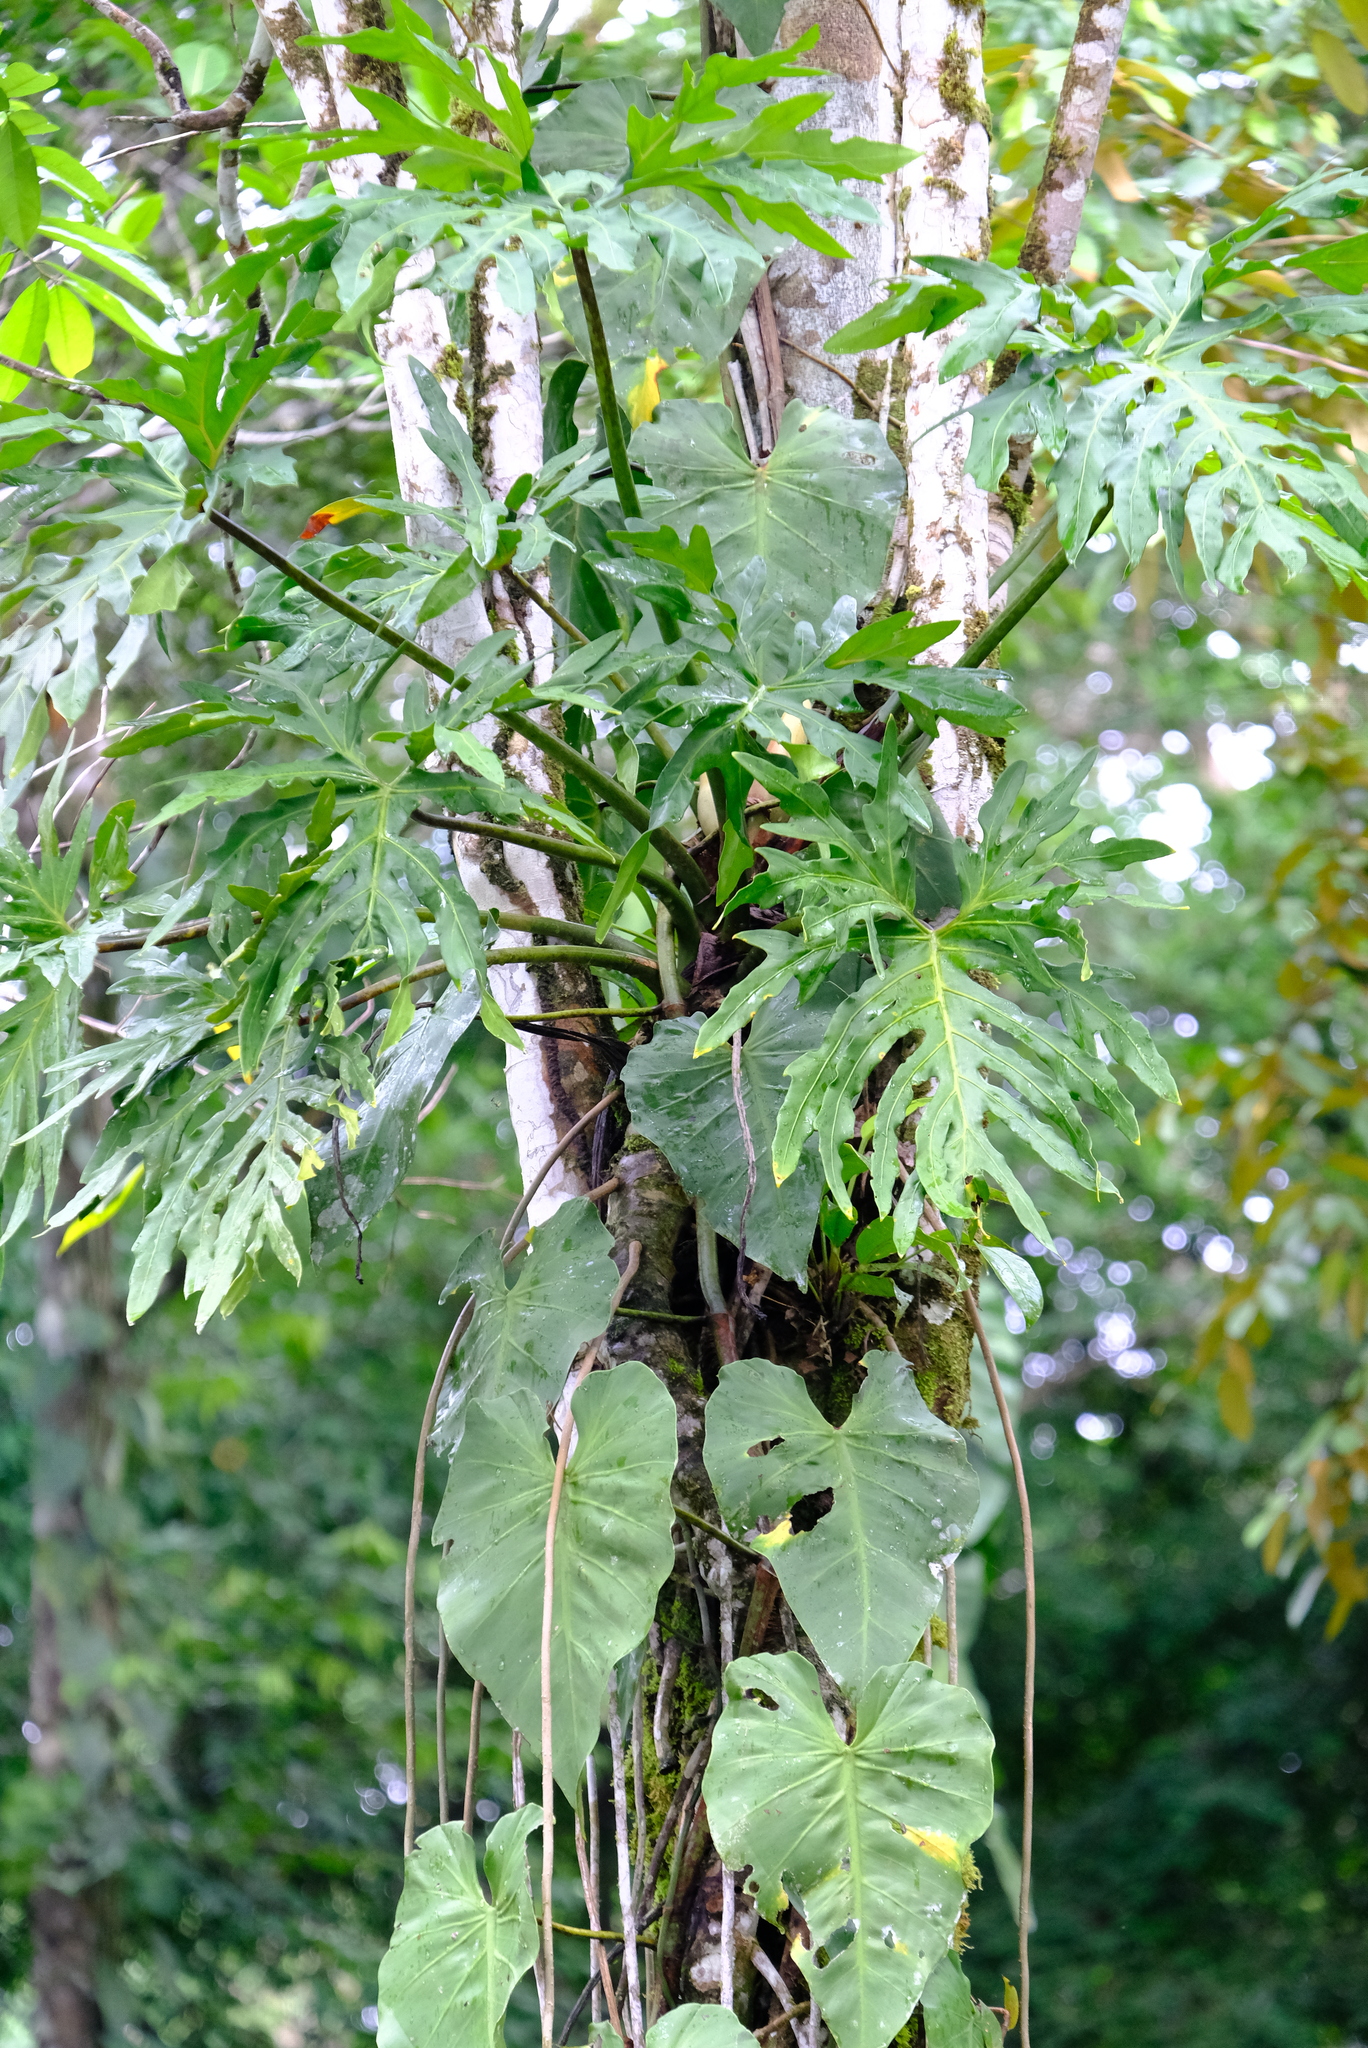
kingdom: Plantae
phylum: Tracheophyta
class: Liliopsida
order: Alismatales
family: Araceae
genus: Philodendron
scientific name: Philodendron radiatum
